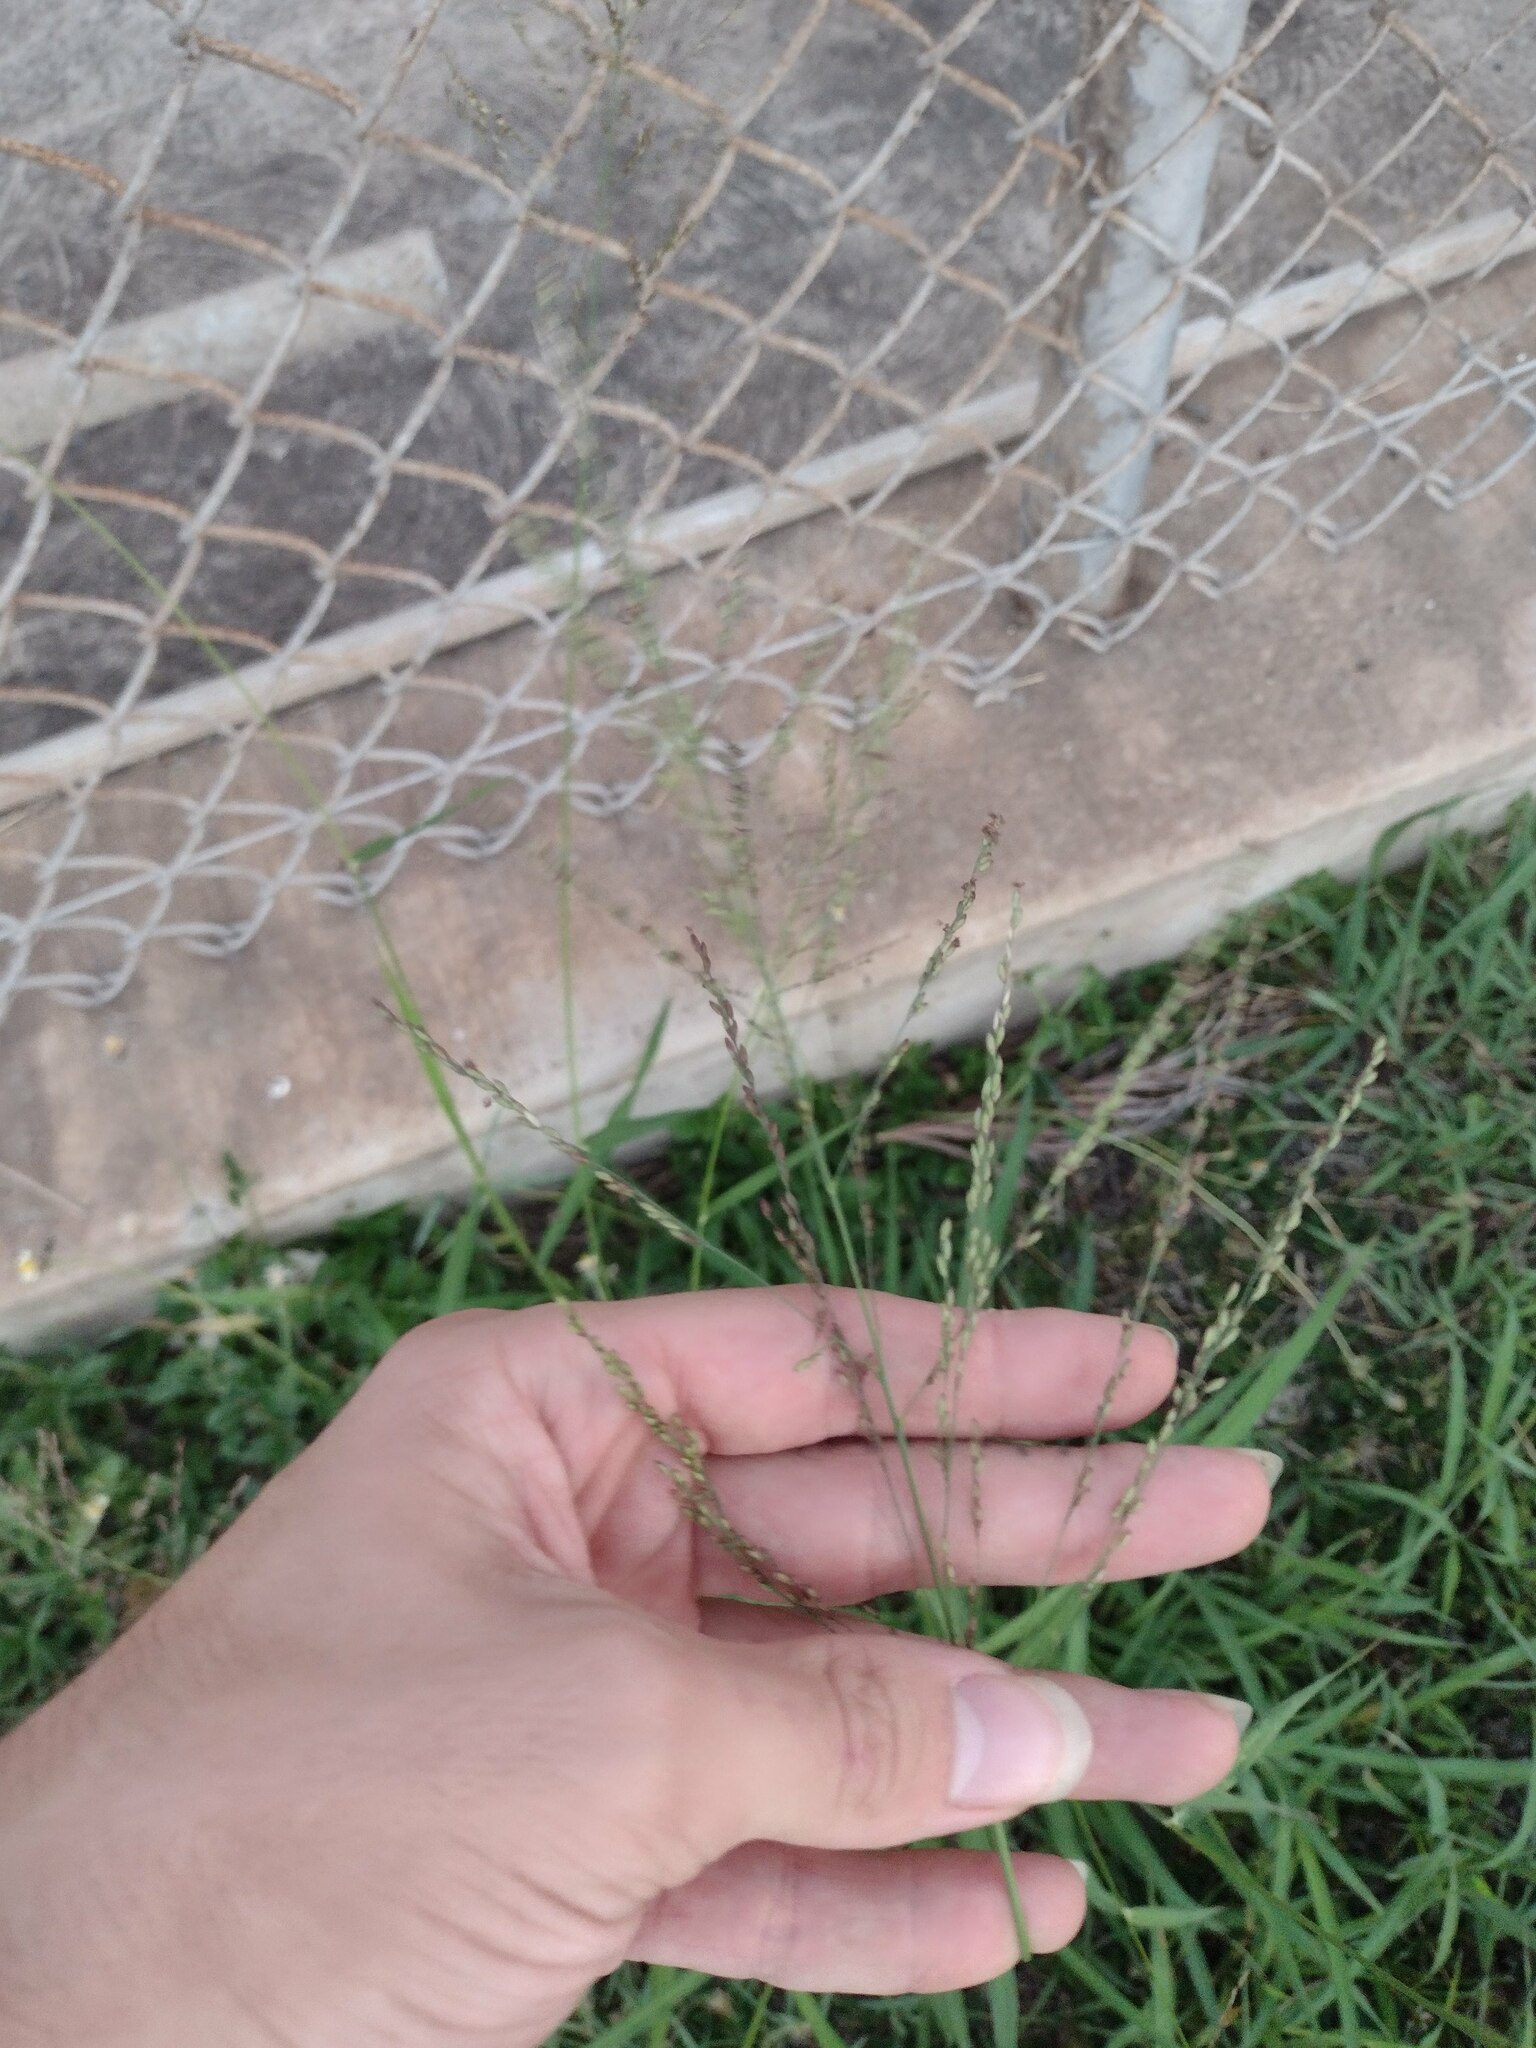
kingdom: Plantae
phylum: Tracheophyta
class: Liliopsida
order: Poales
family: Poaceae
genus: Megathyrsus
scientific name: Megathyrsus maximus
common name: Guineagrass
